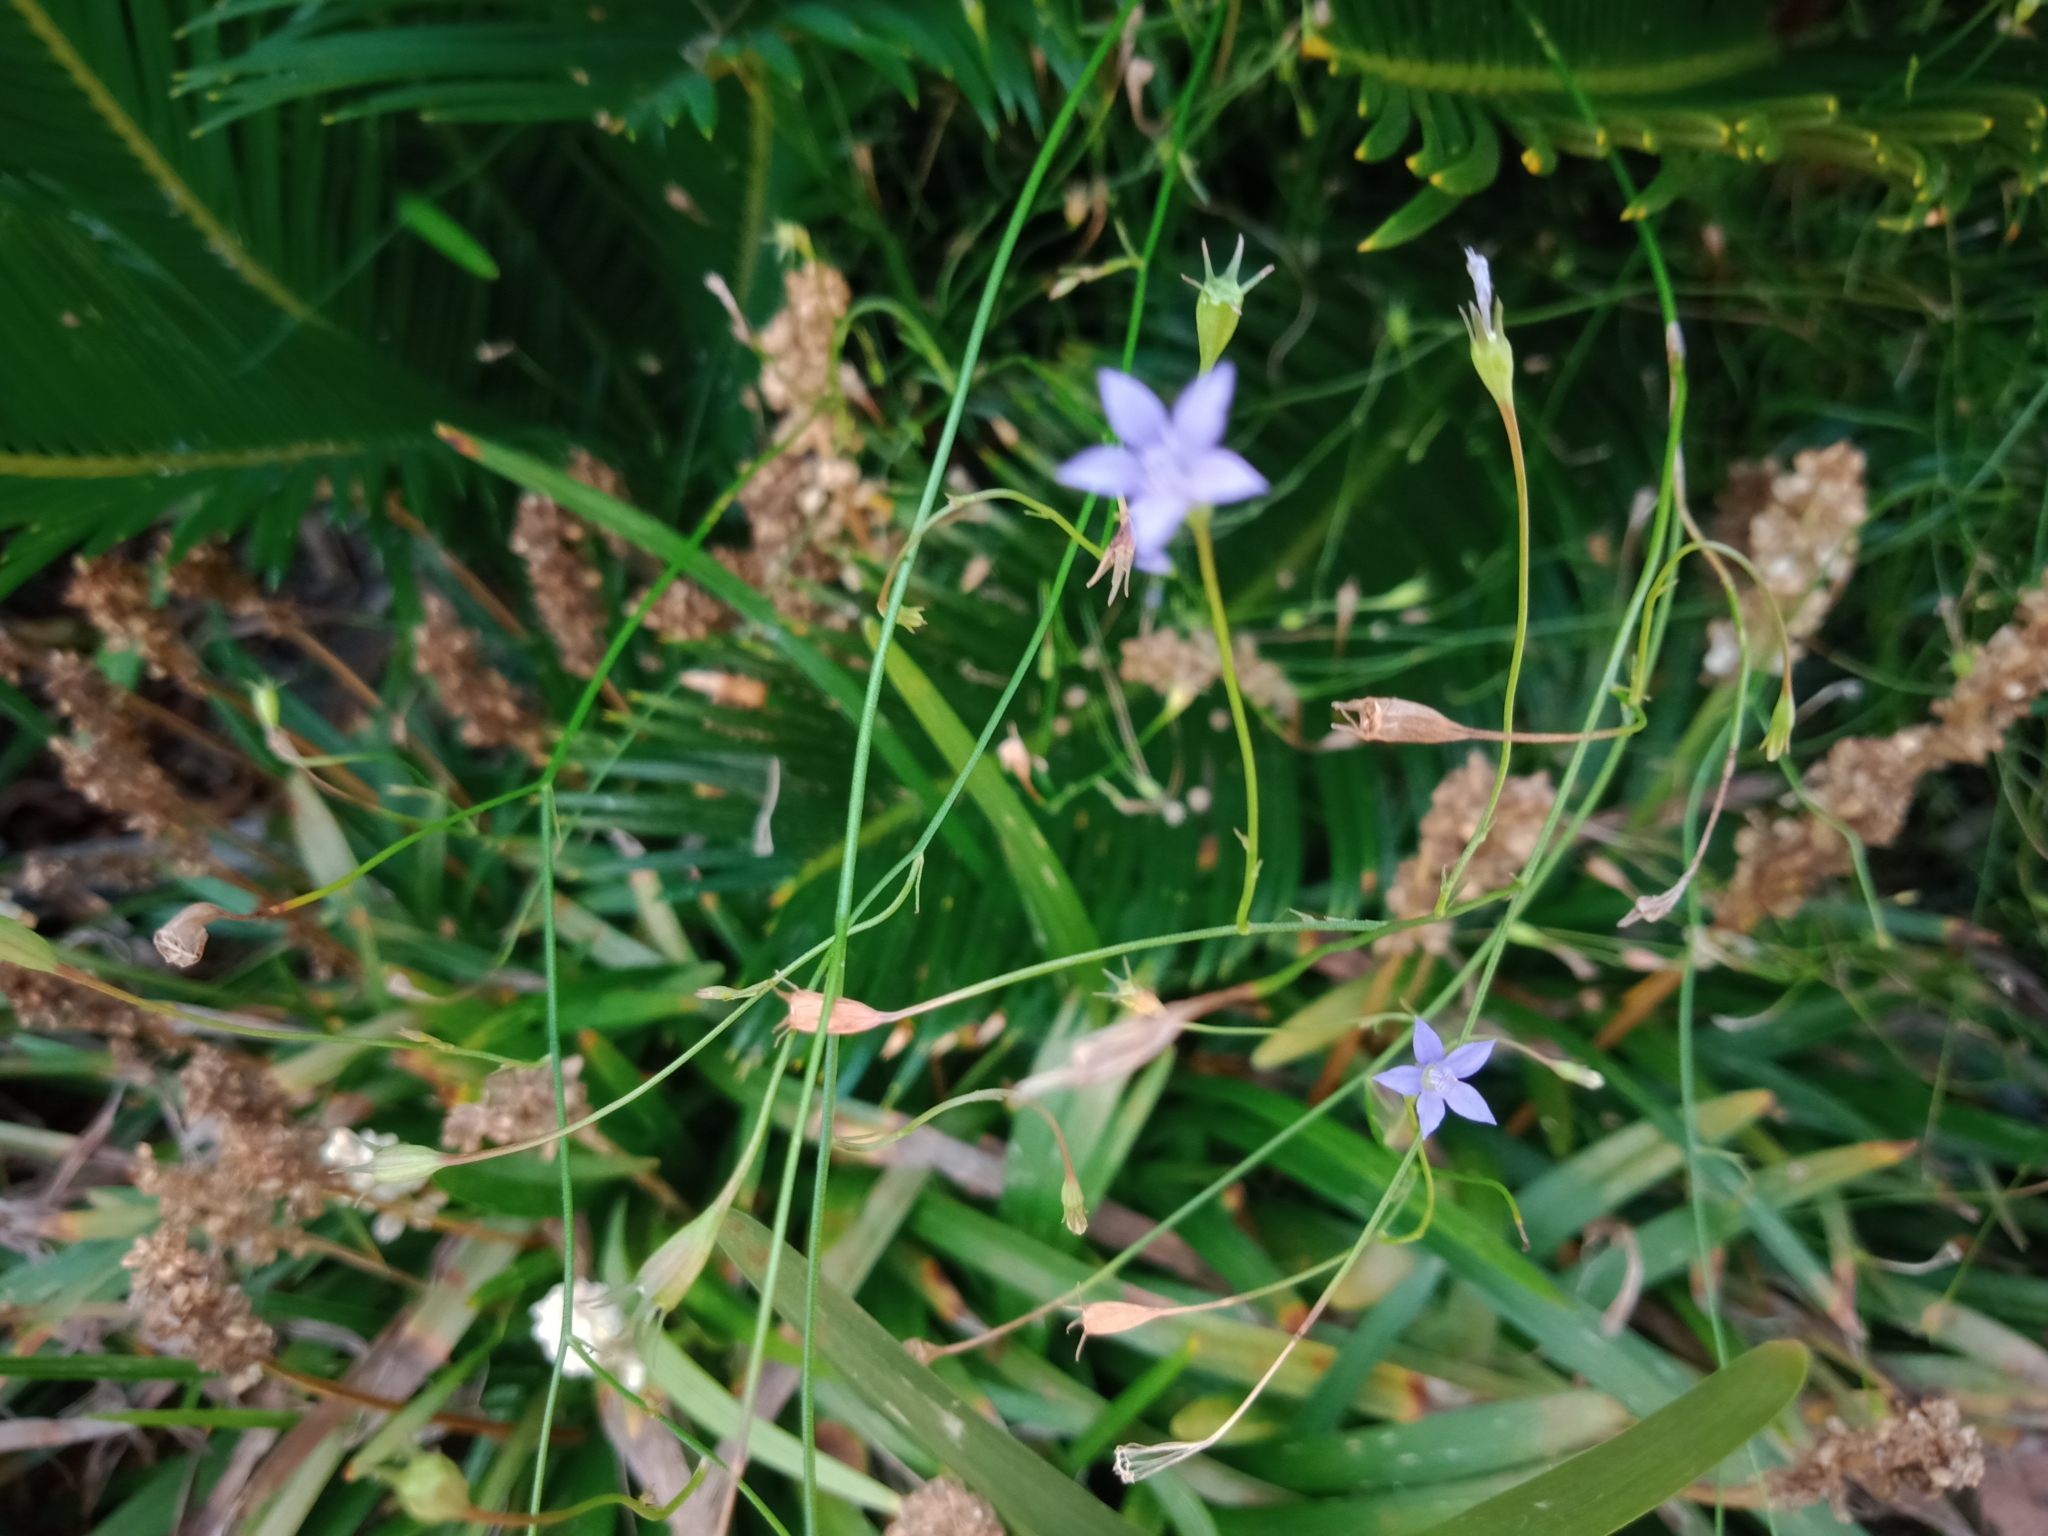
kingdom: Plantae
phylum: Tracheophyta
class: Magnoliopsida
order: Asterales
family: Campanulaceae
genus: Wahlenbergia
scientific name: Wahlenbergia gracilis
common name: Harebell
